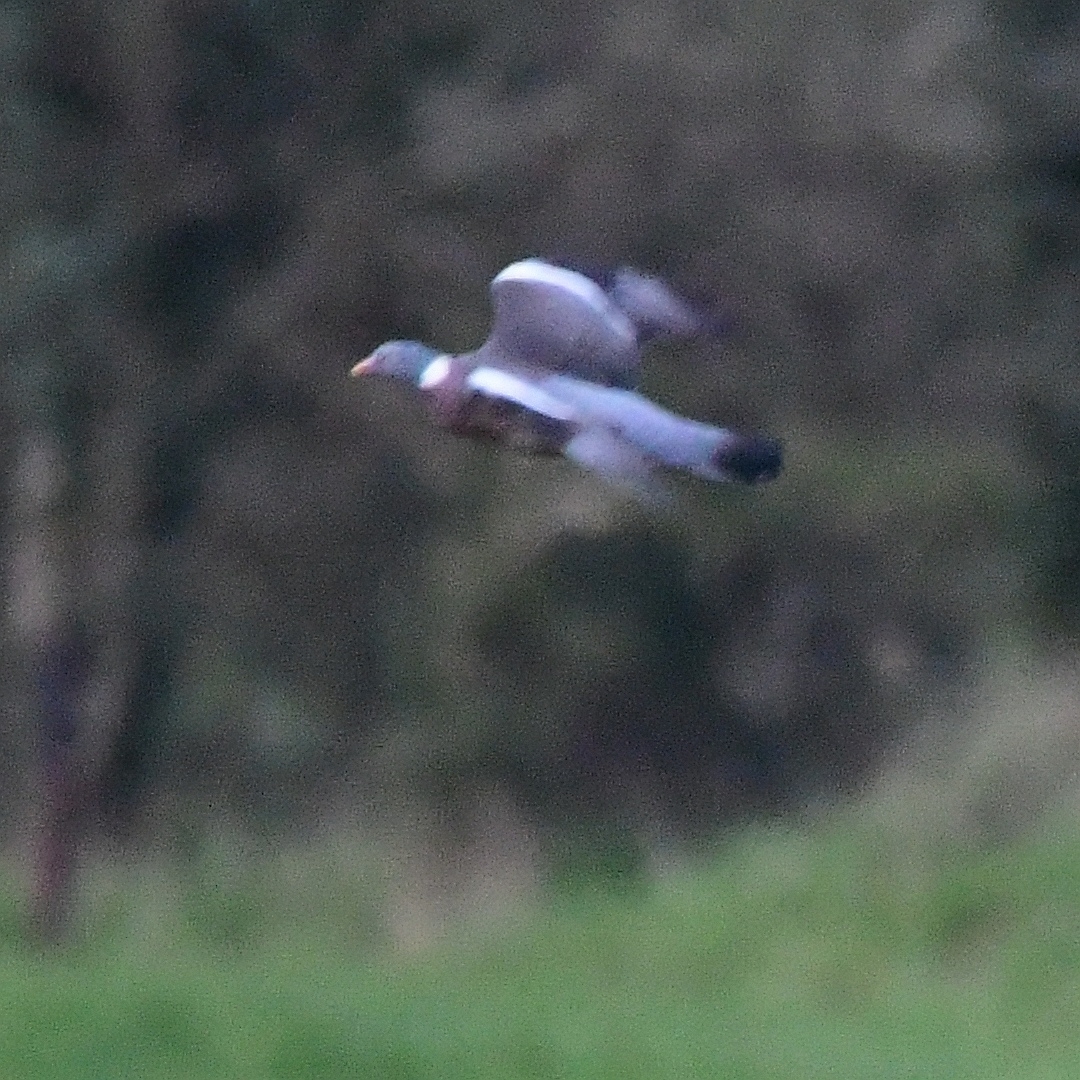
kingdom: Animalia
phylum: Chordata
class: Aves
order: Columbiformes
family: Columbidae
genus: Columba
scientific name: Columba palumbus
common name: Common wood pigeon
